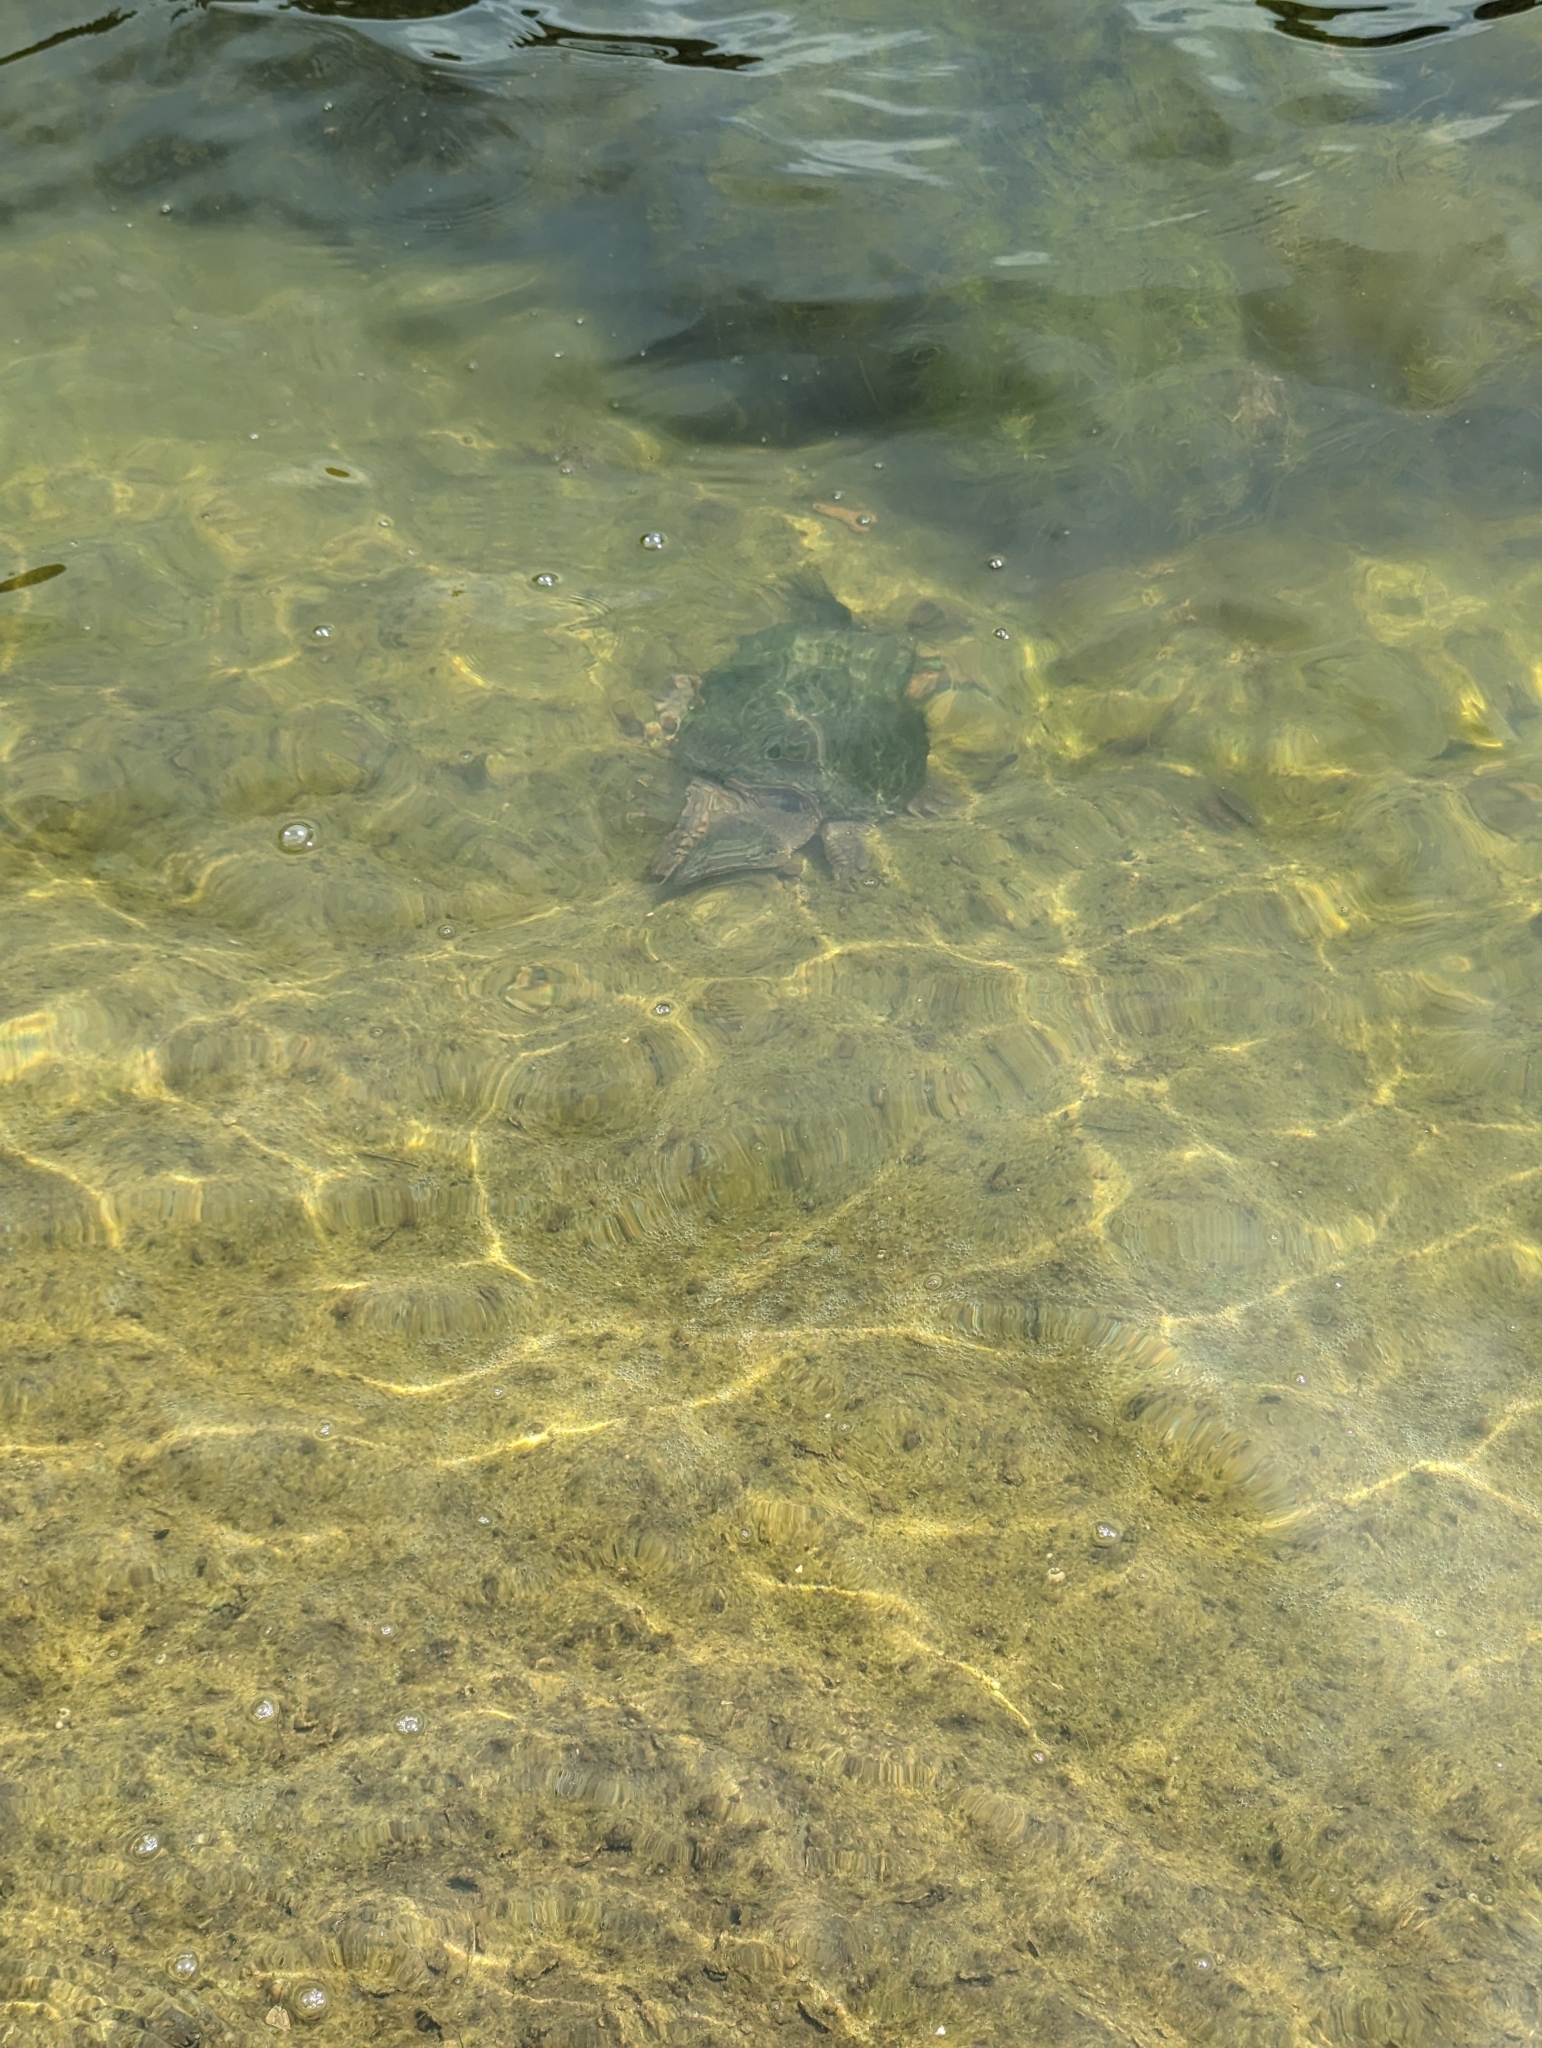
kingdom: Animalia
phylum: Chordata
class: Testudines
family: Chelydridae
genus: Chelydra
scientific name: Chelydra serpentina
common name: Common snapping turtle
